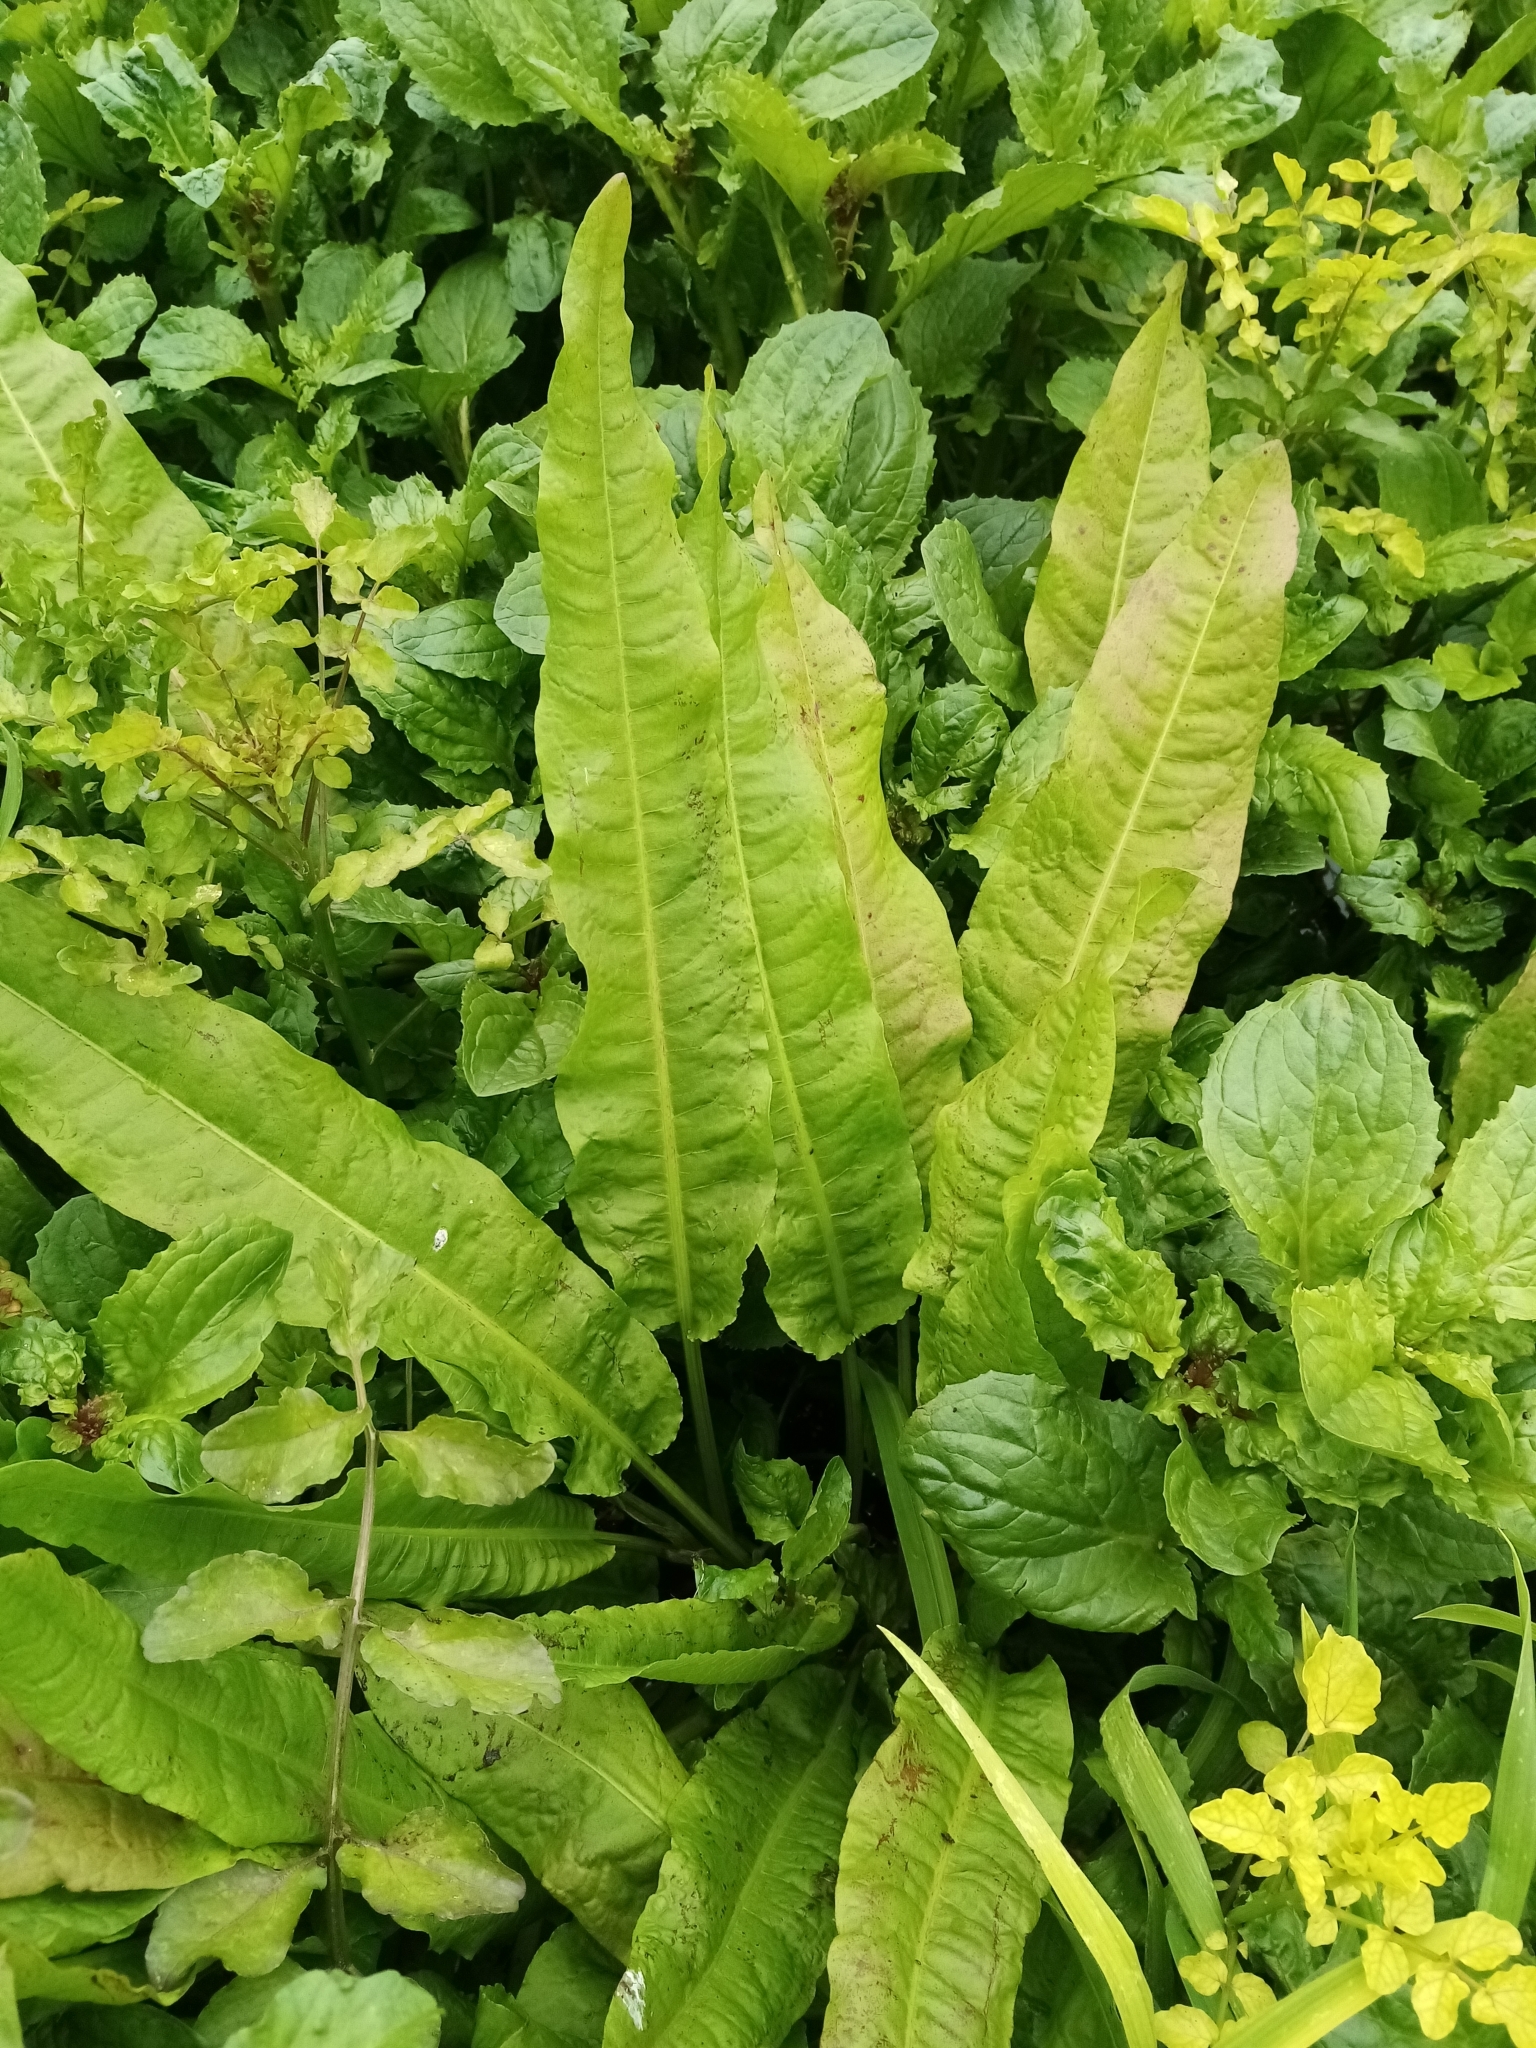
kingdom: Plantae
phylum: Tracheophyta
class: Magnoliopsida
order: Caryophyllales
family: Polygonaceae
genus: Rumex
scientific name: Rumex conglomeratus
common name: Clustered dock
